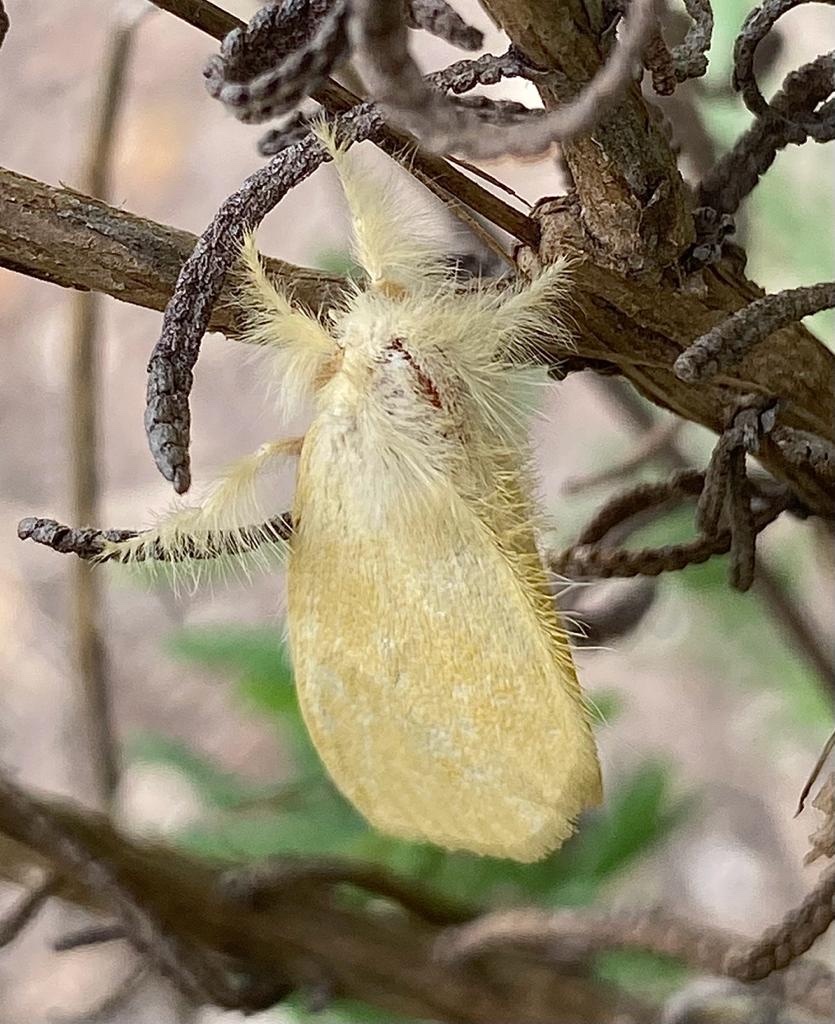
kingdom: Animalia
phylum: Arthropoda
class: Insecta
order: Lepidoptera
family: Erebidae
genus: Euproctis
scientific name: Euproctis subalba
